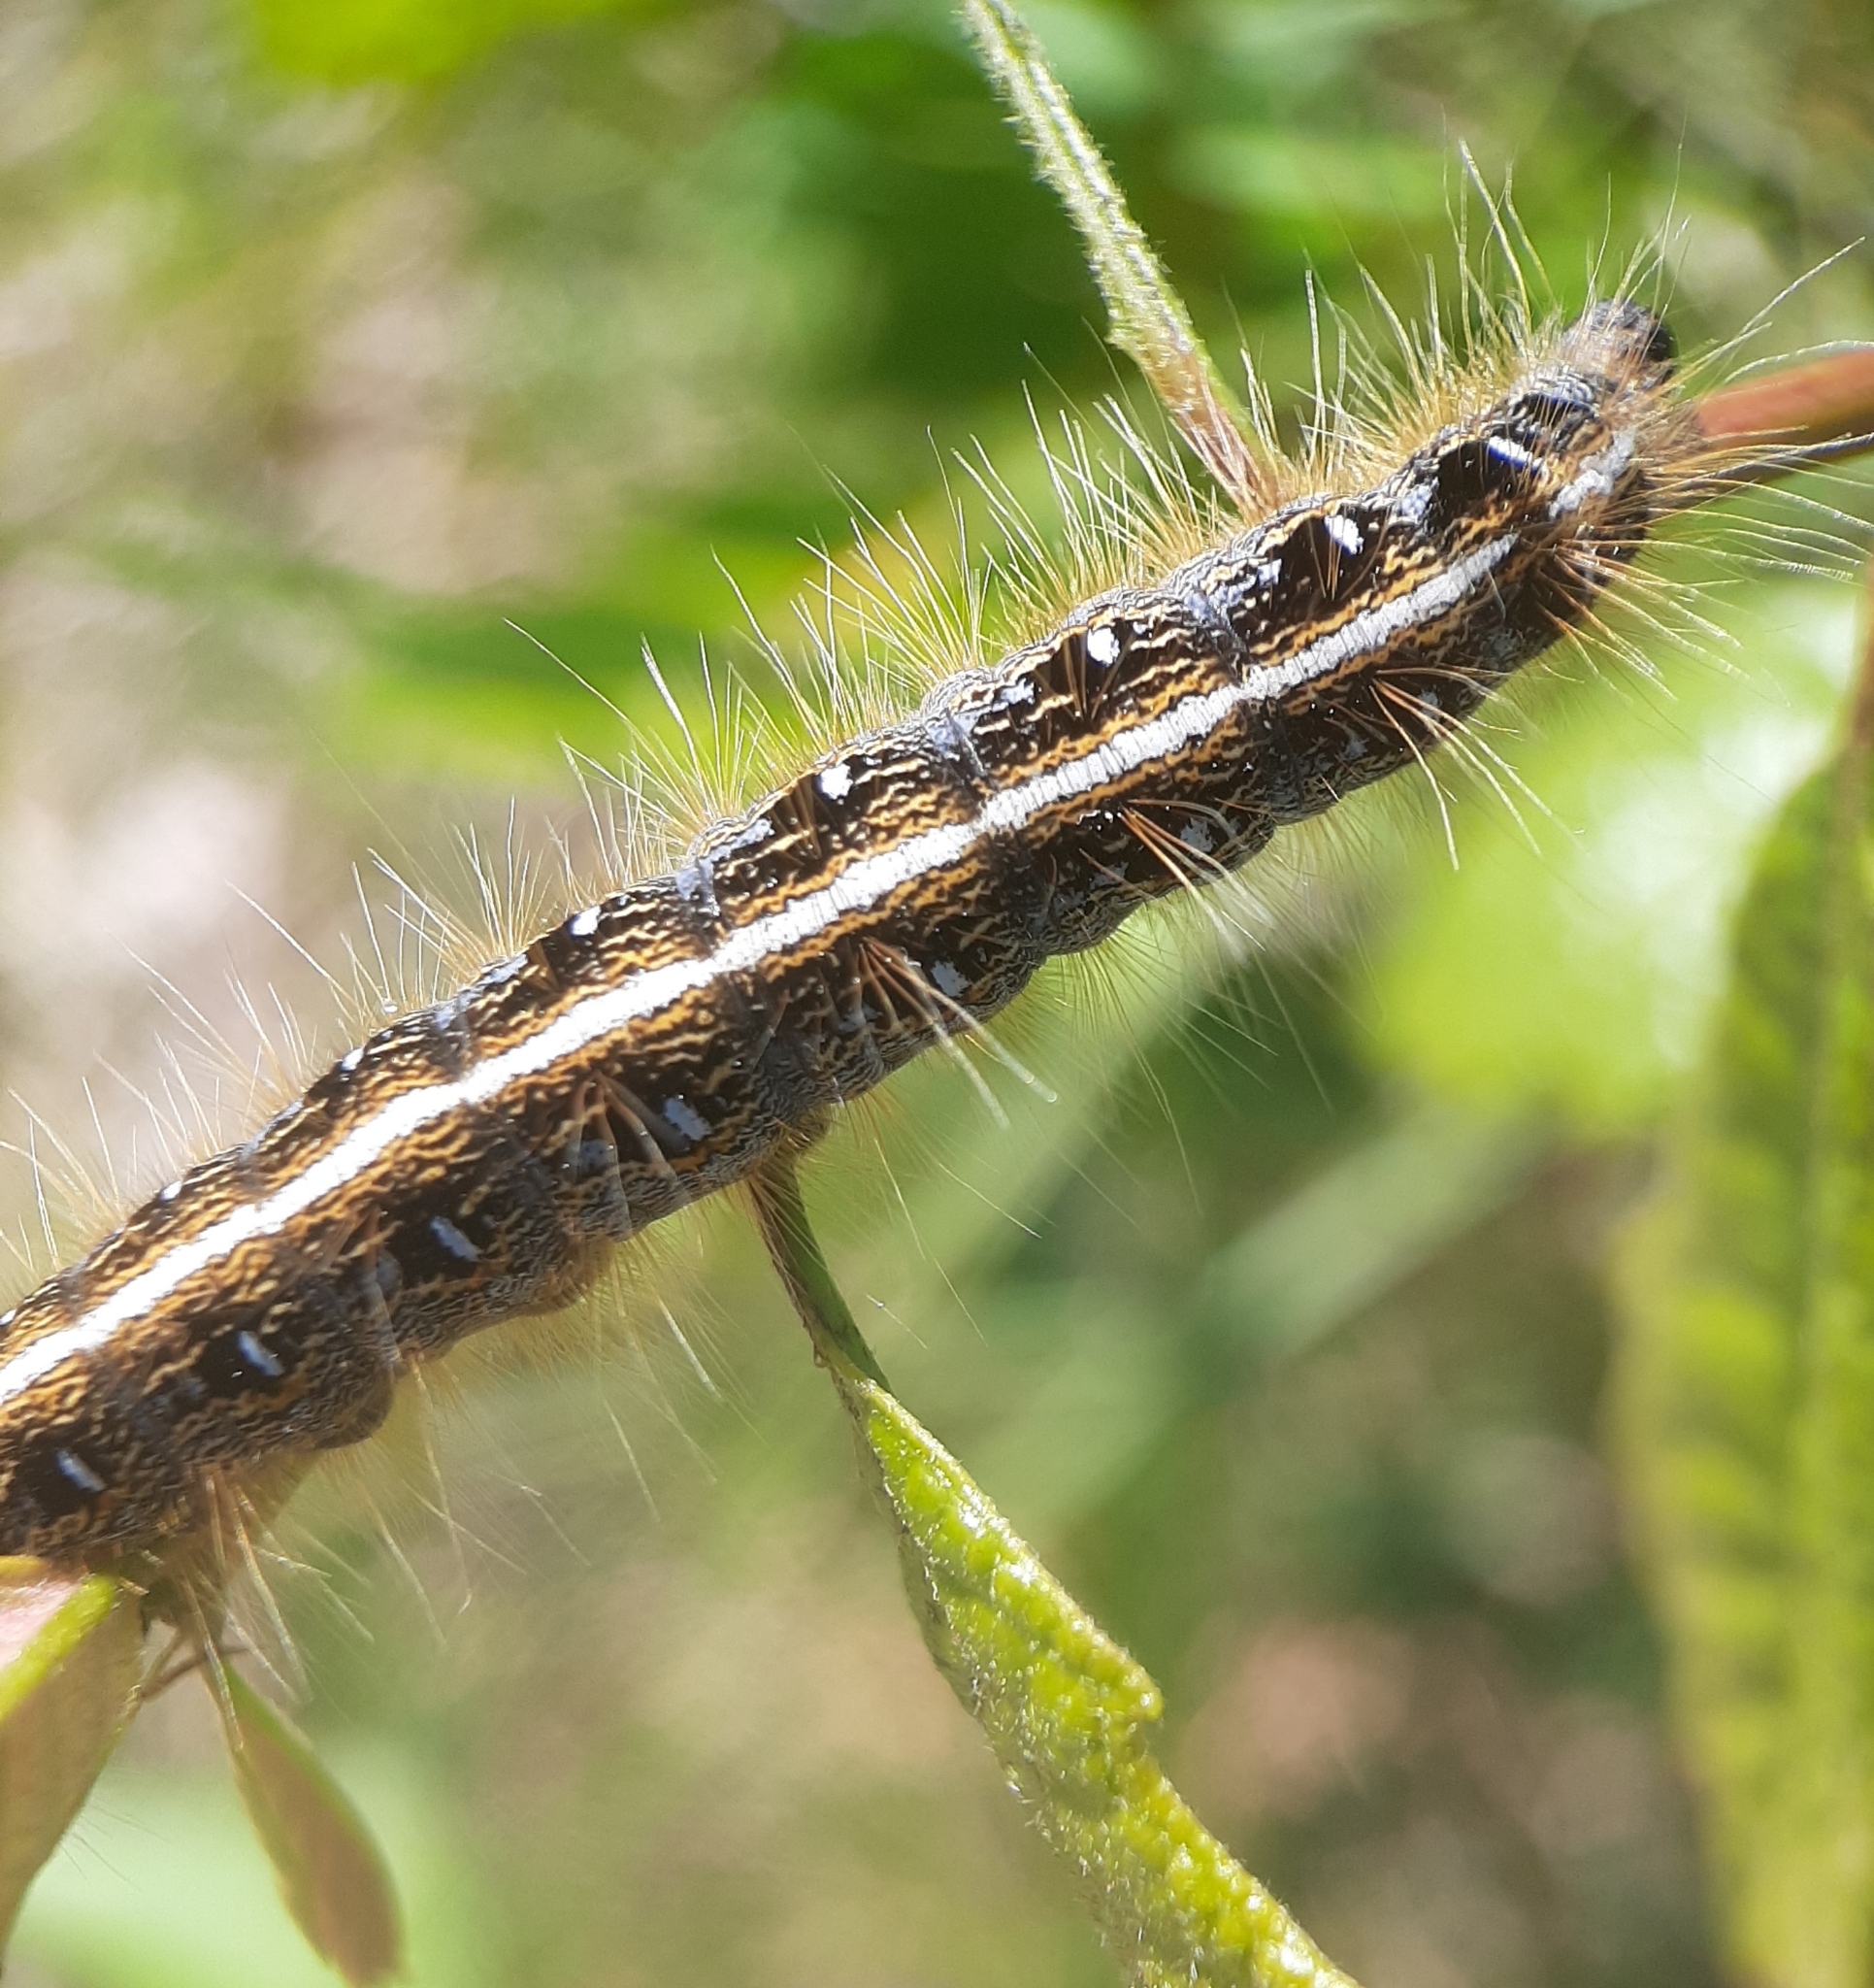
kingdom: Animalia
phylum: Arthropoda
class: Insecta
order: Lepidoptera
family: Lasiocampidae
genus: Malacosoma
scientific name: Malacosoma americana
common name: Eastern tent caterpillar moth
